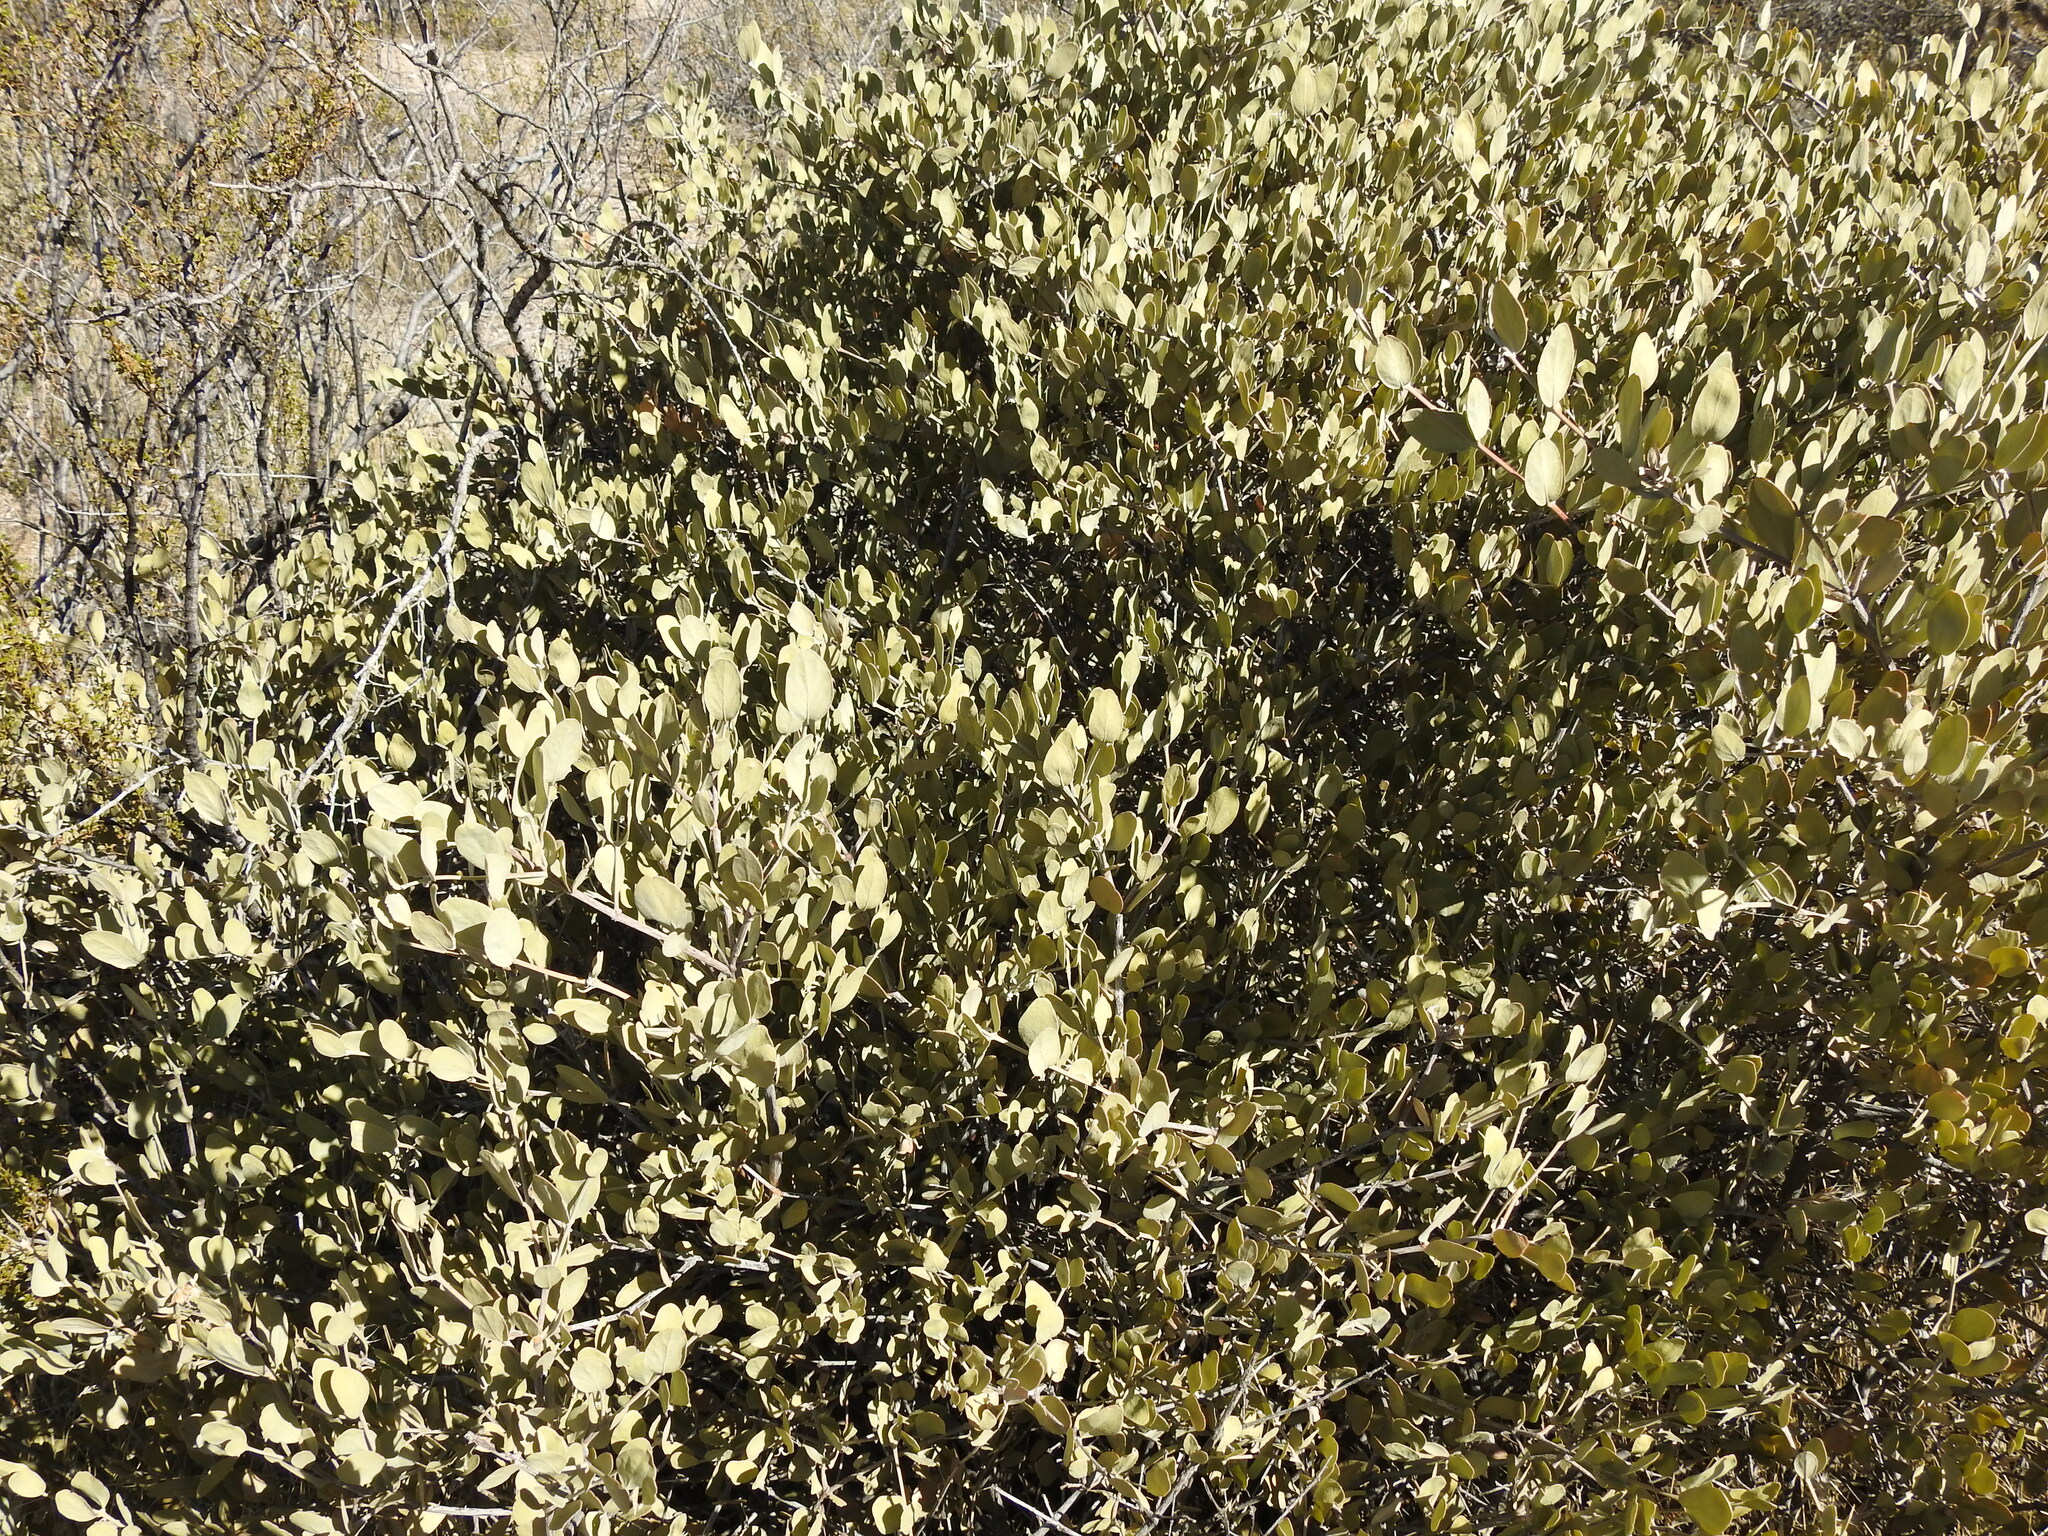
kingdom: Plantae
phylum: Tracheophyta
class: Magnoliopsida
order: Caryophyllales
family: Simmondsiaceae
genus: Simmondsia
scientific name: Simmondsia chinensis
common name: Jojoba
